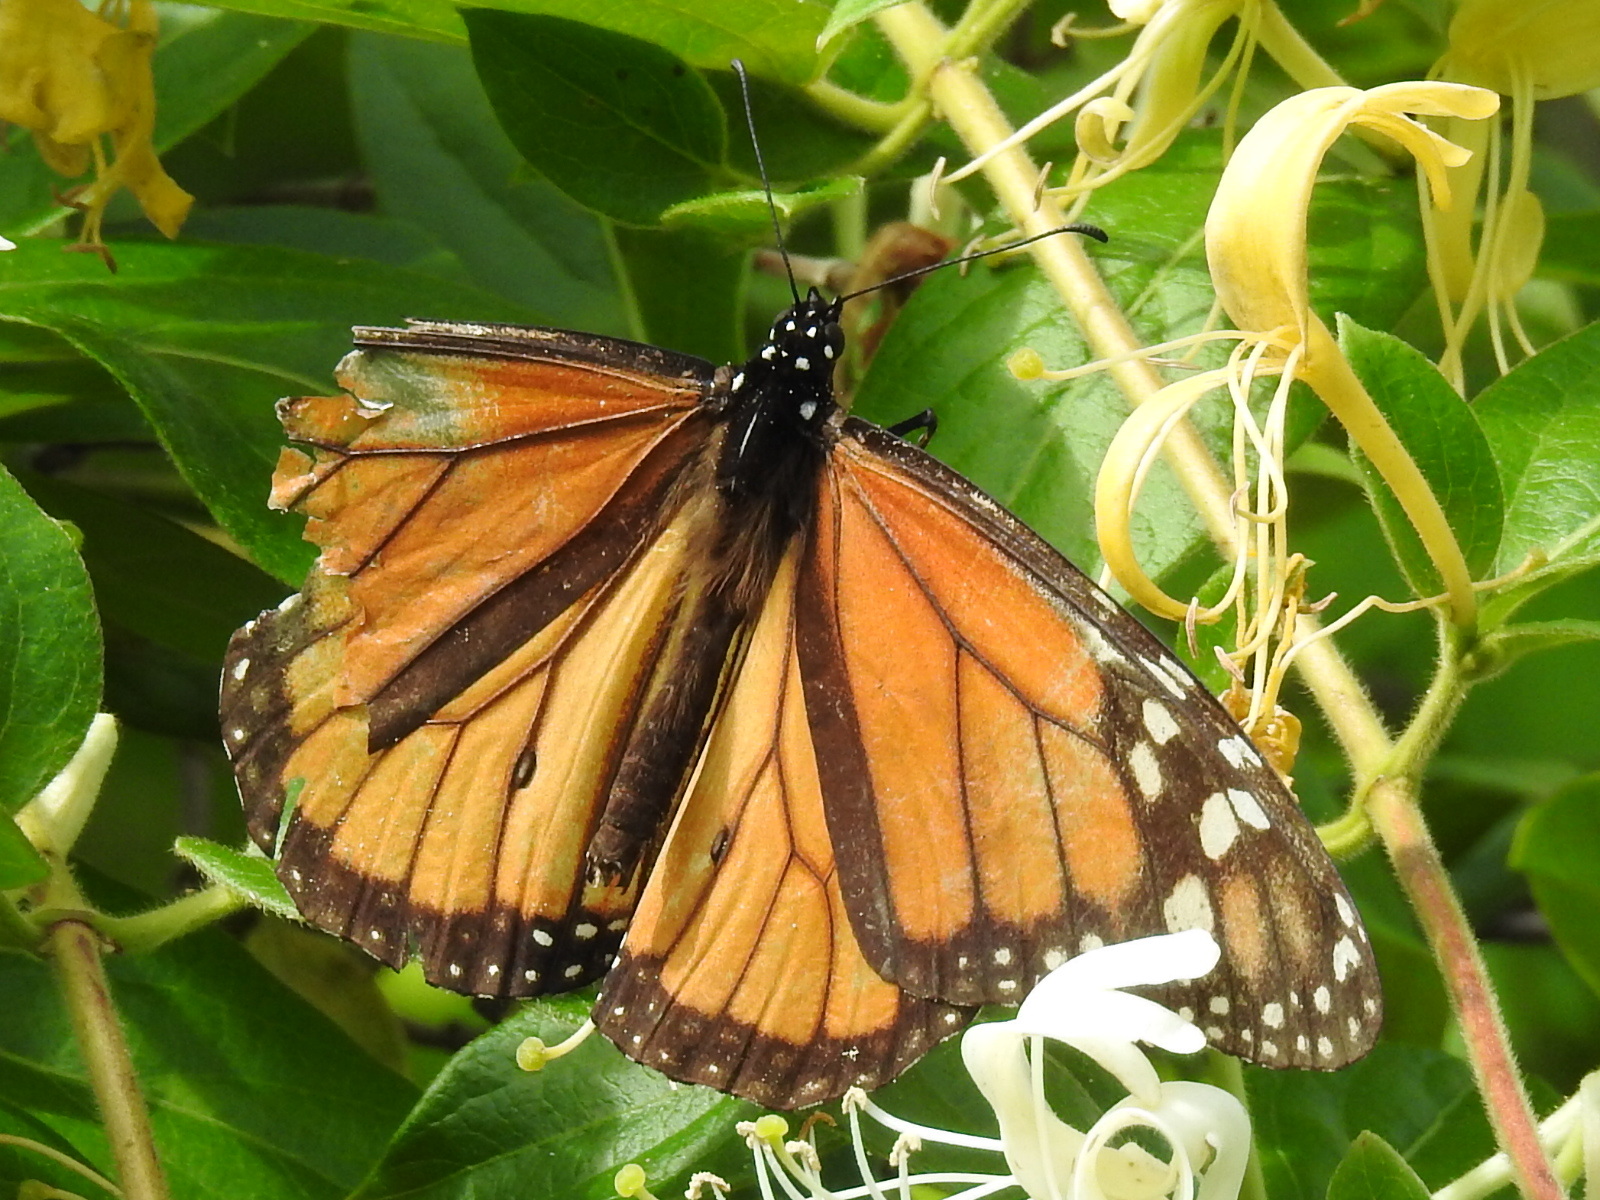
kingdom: Animalia
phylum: Arthropoda
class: Insecta
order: Lepidoptera
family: Nymphalidae
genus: Danaus
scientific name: Danaus plexippus
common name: Monarch
